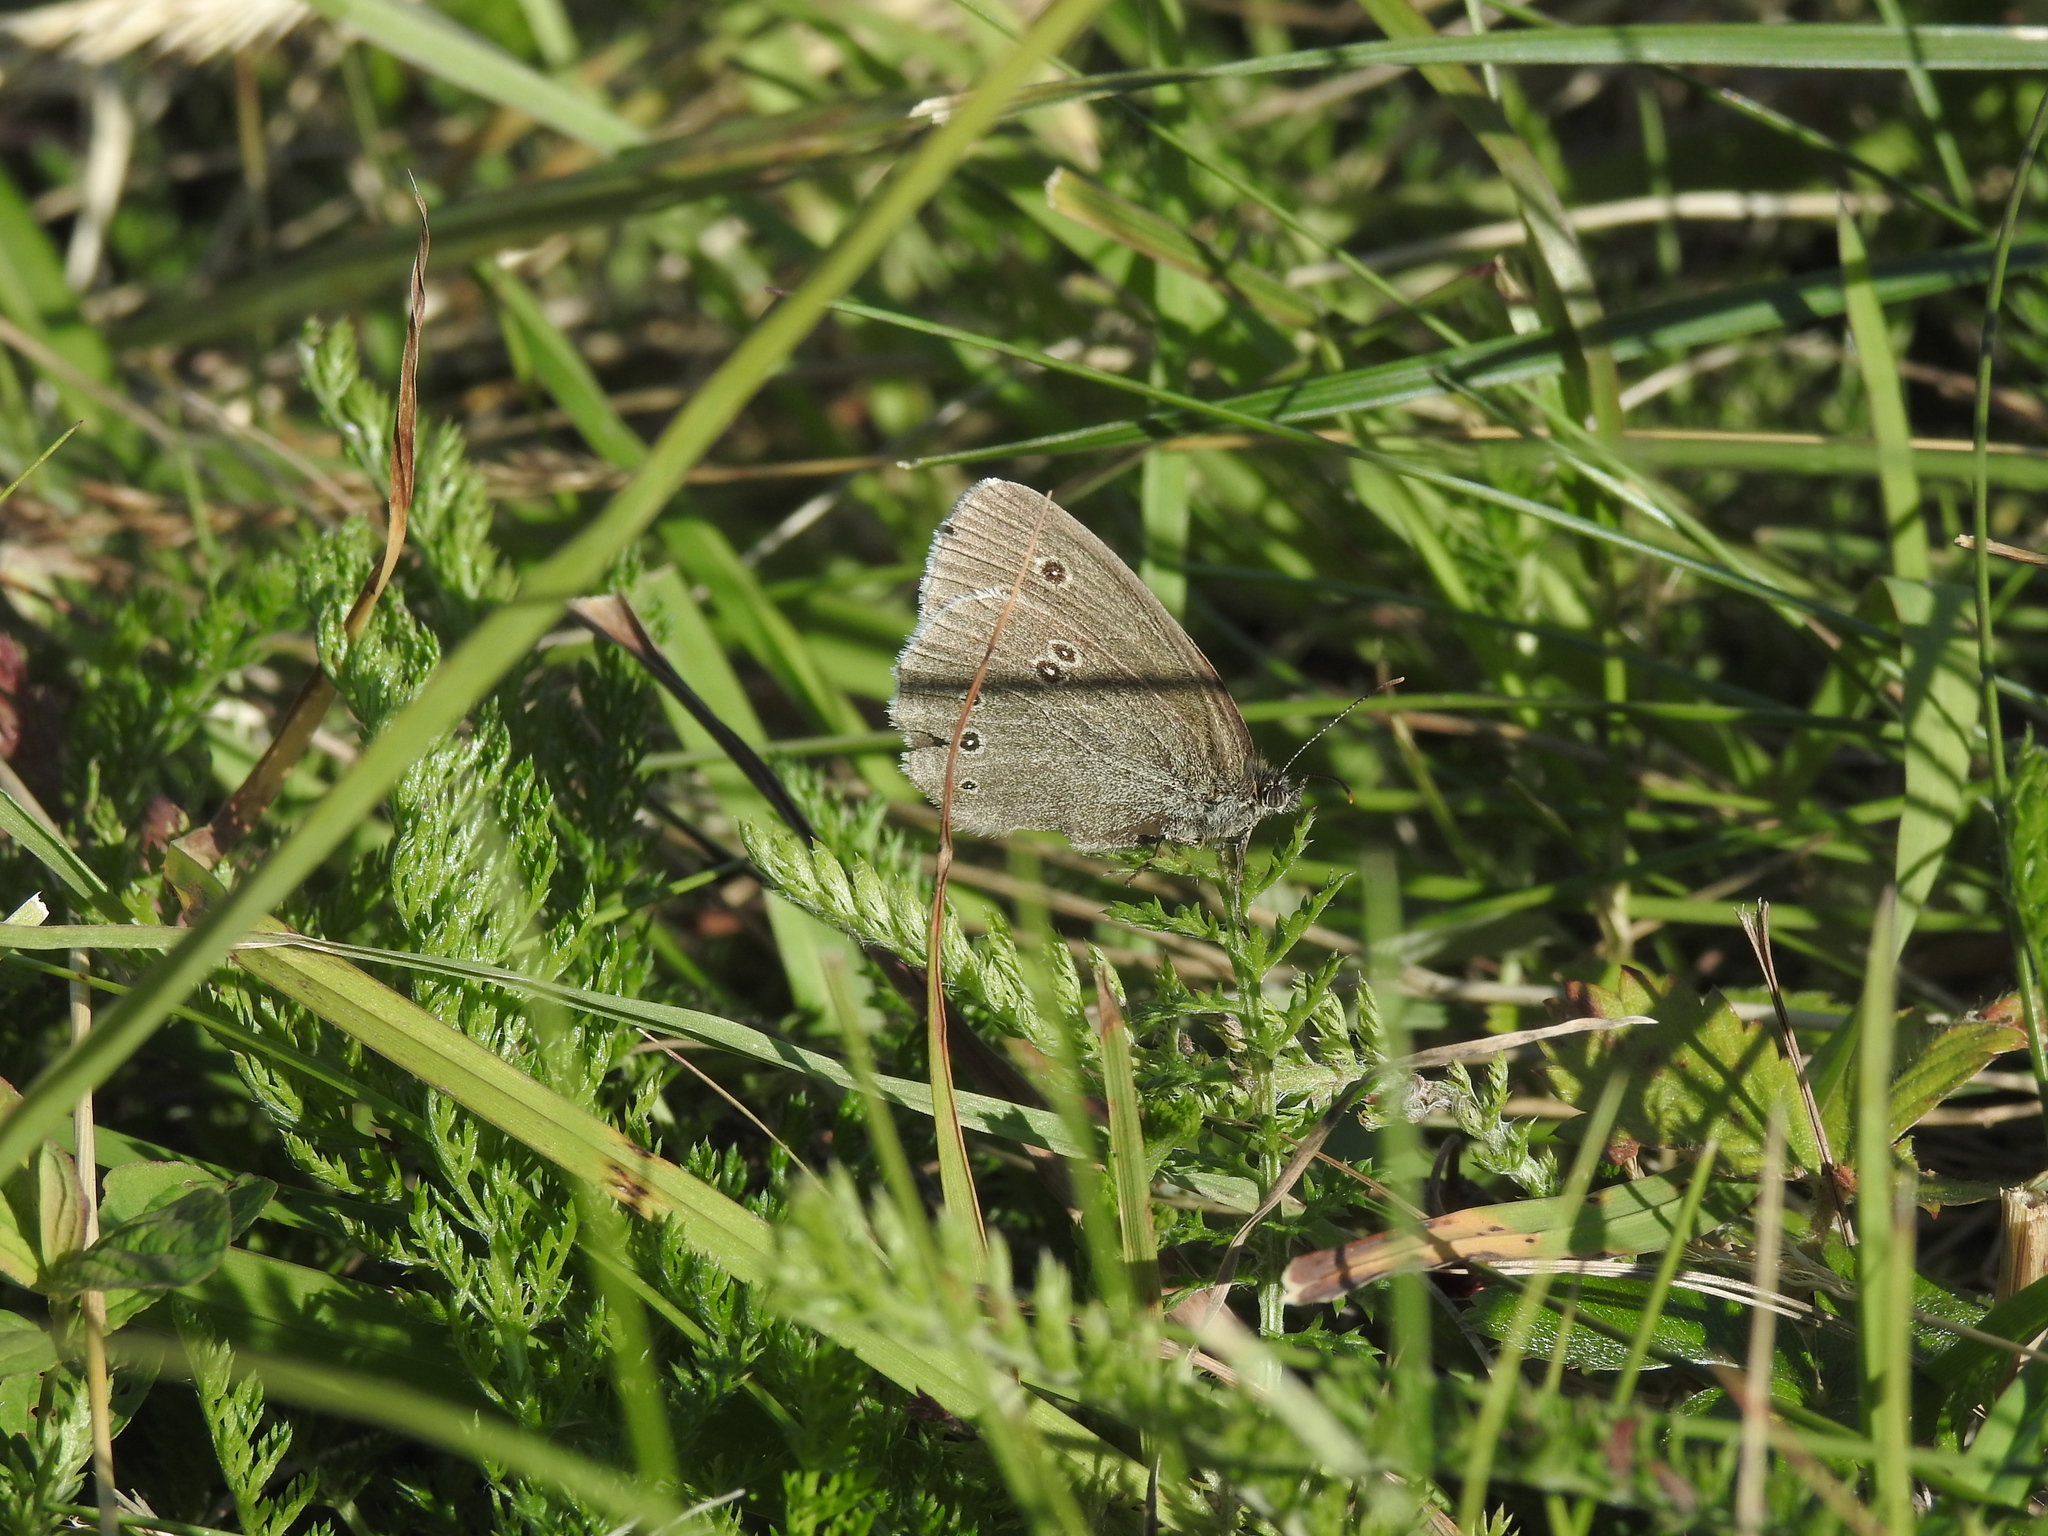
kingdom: Animalia
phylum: Arthropoda
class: Insecta
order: Lepidoptera
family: Nymphalidae
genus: Aphantopus
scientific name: Aphantopus hyperantus
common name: Ringlet
